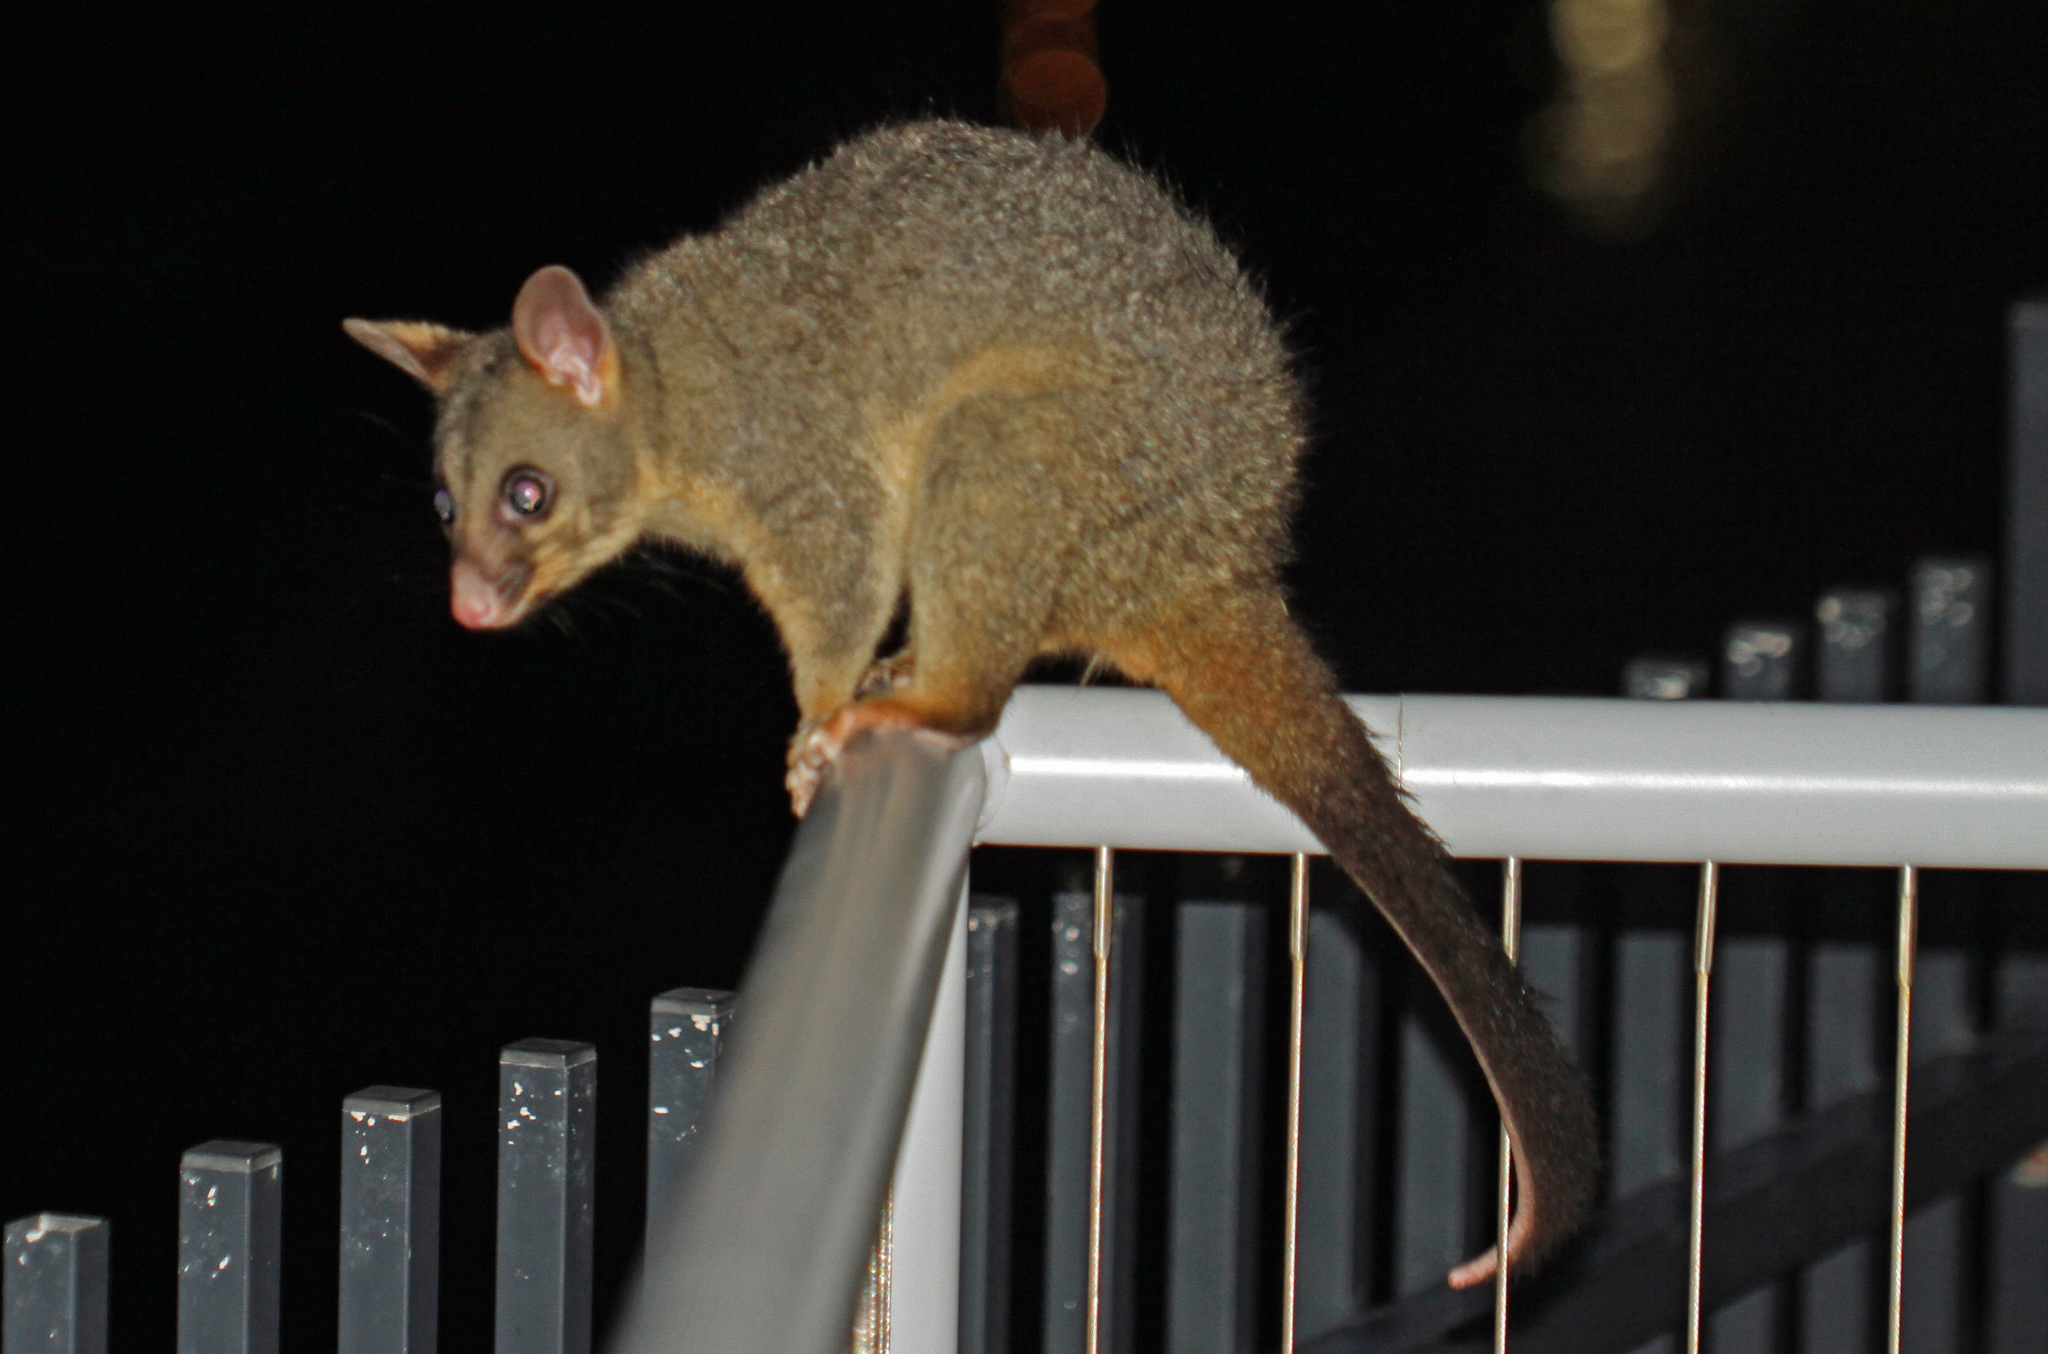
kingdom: Animalia
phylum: Chordata
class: Mammalia
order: Diprotodontia
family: Phalangeridae
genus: Trichosurus
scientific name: Trichosurus vulpecula
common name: Common brushtail
